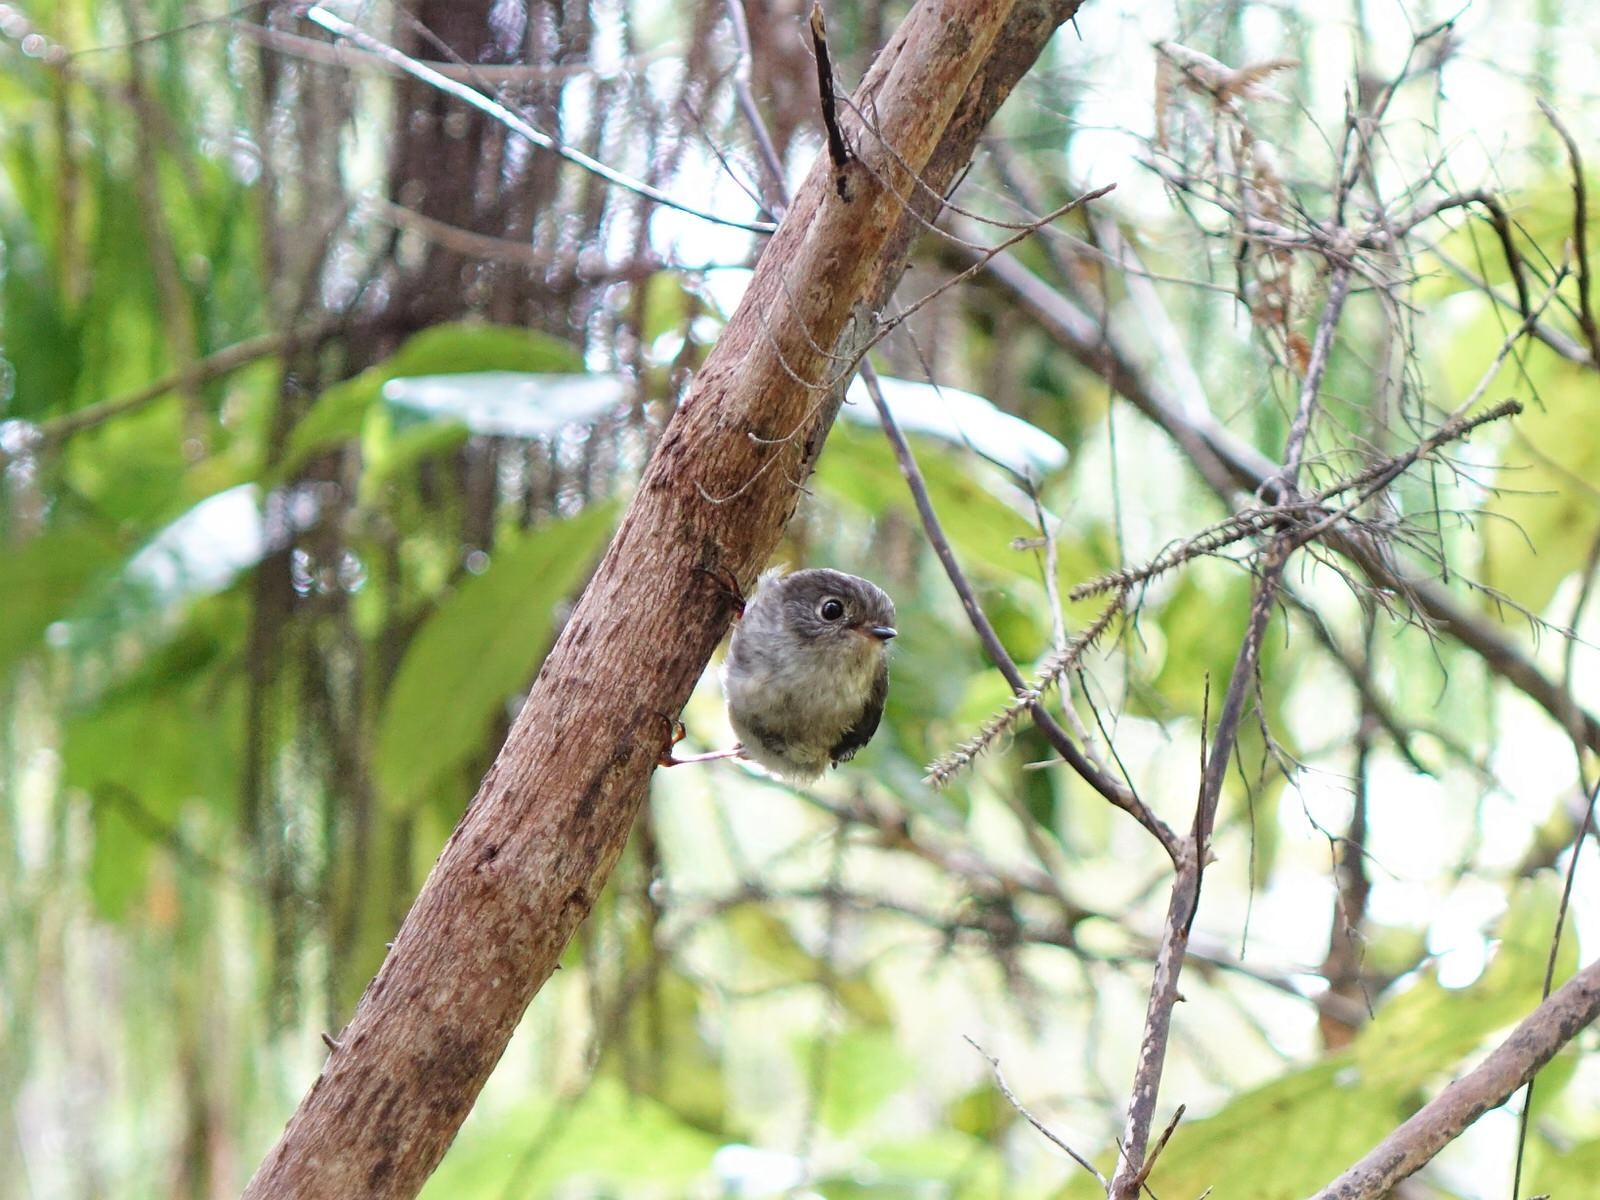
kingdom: Animalia
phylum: Chordata
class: Aves
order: Passeriformes
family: Petroicidae
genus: Petroica
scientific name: Petroica macrocephala
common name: Tomtit
